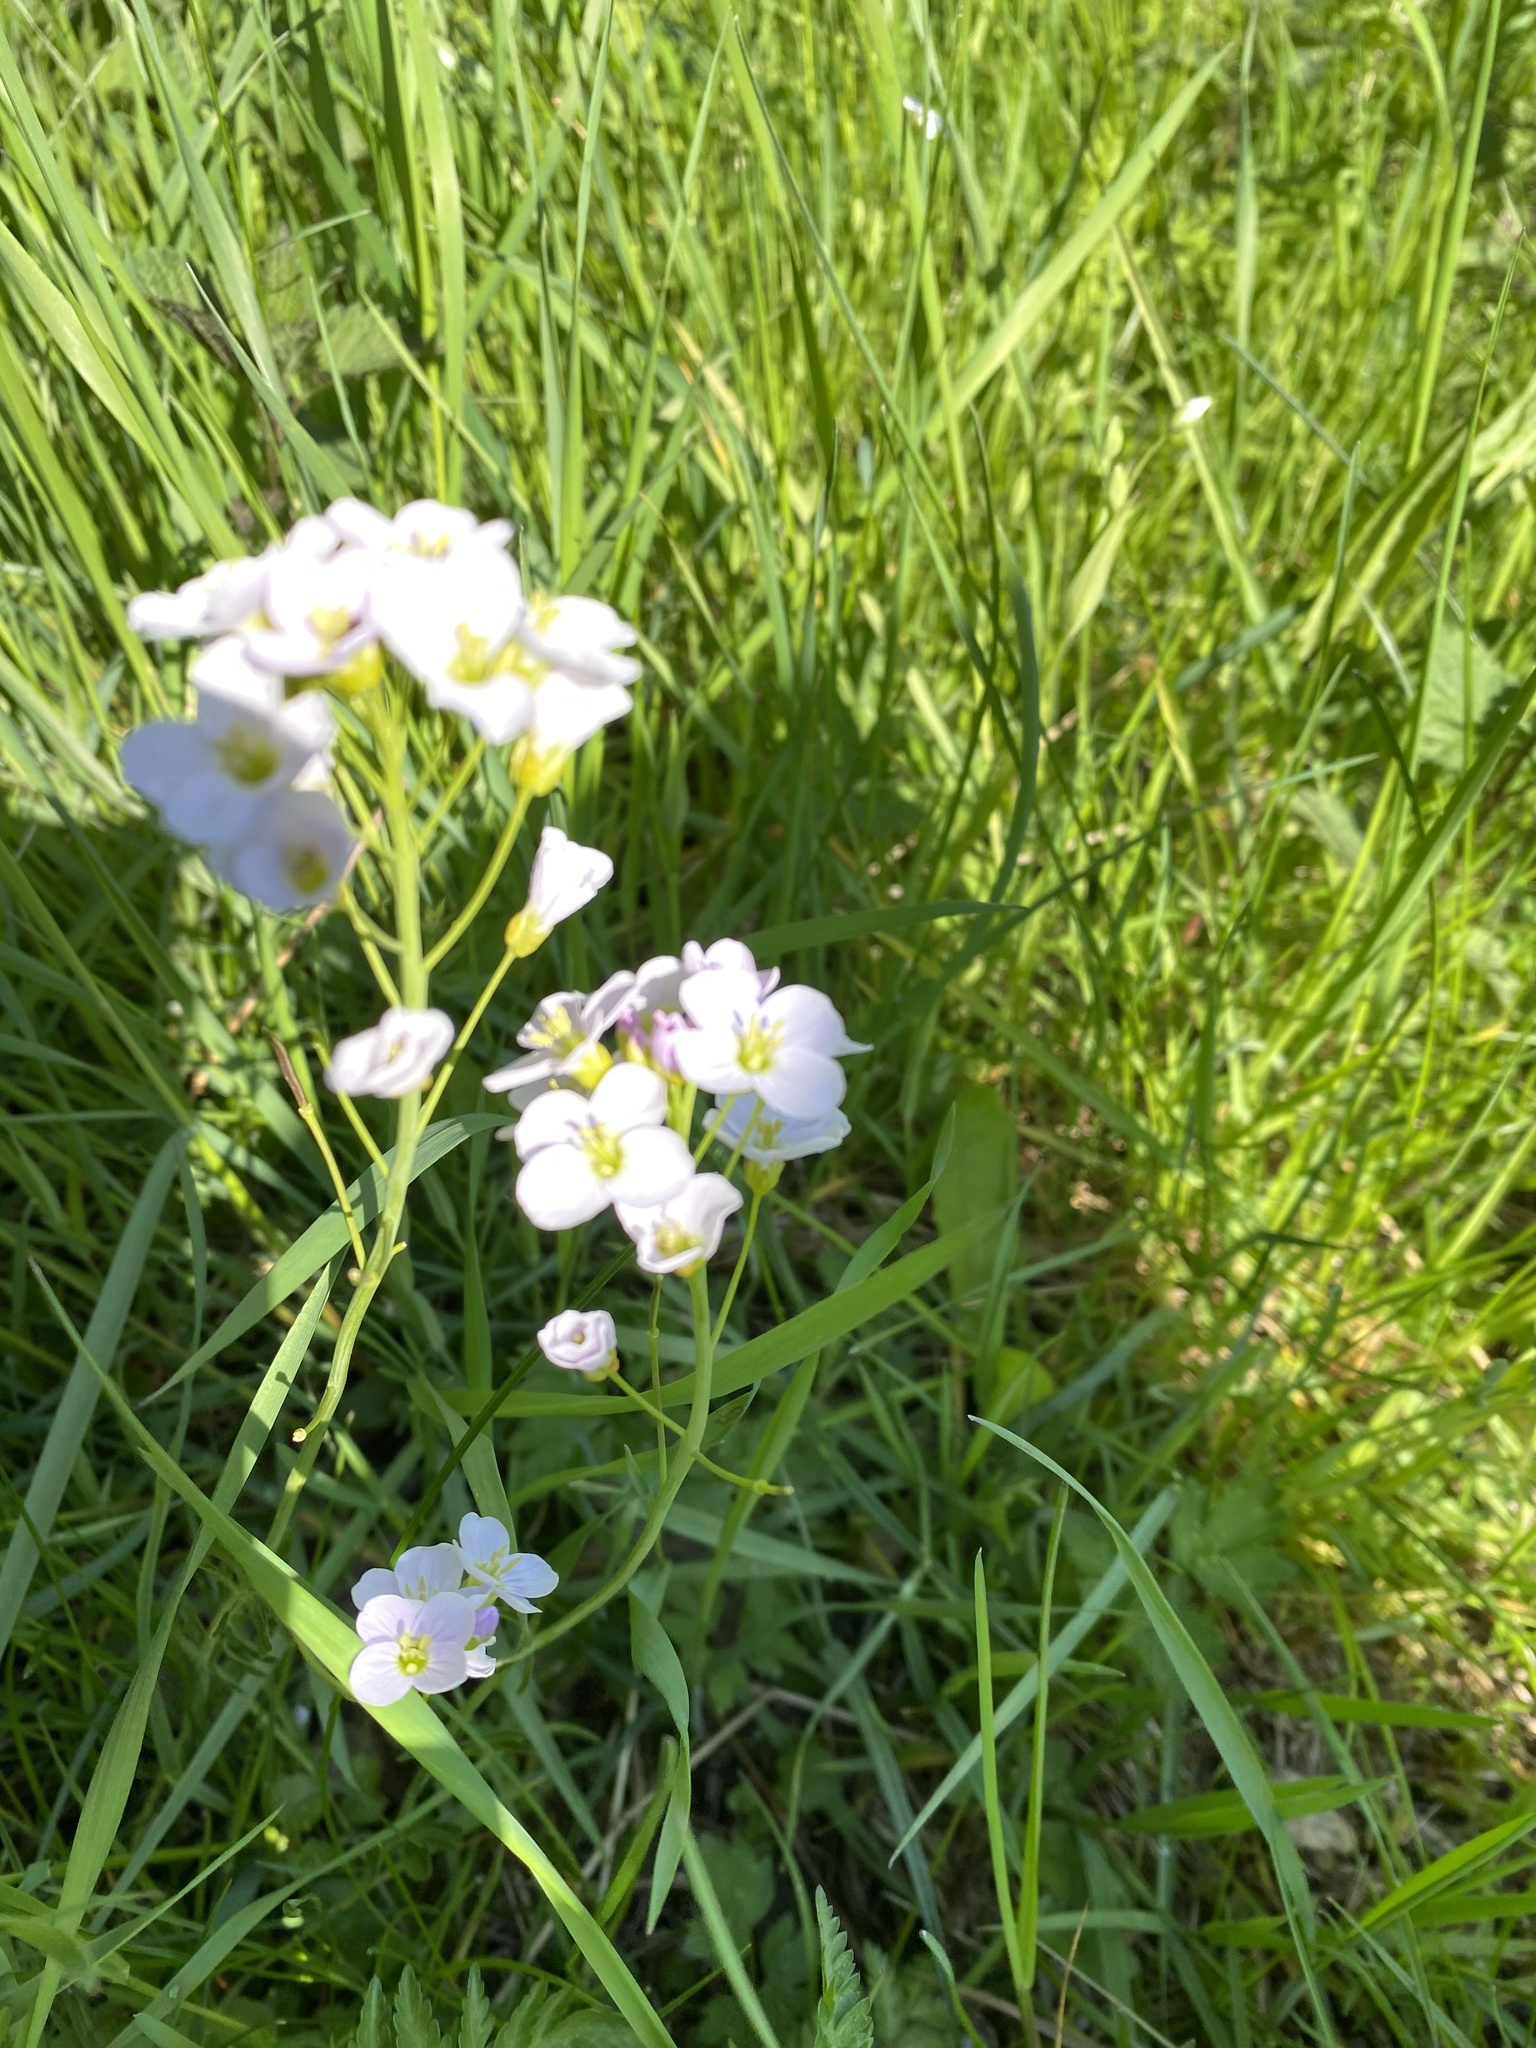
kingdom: Plantae
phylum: Tracheophyta
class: Magnoliopsida
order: Brassicales
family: Brassicaceae
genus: Cardamine
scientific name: Cardamine pratensis
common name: Cuckoo flower
